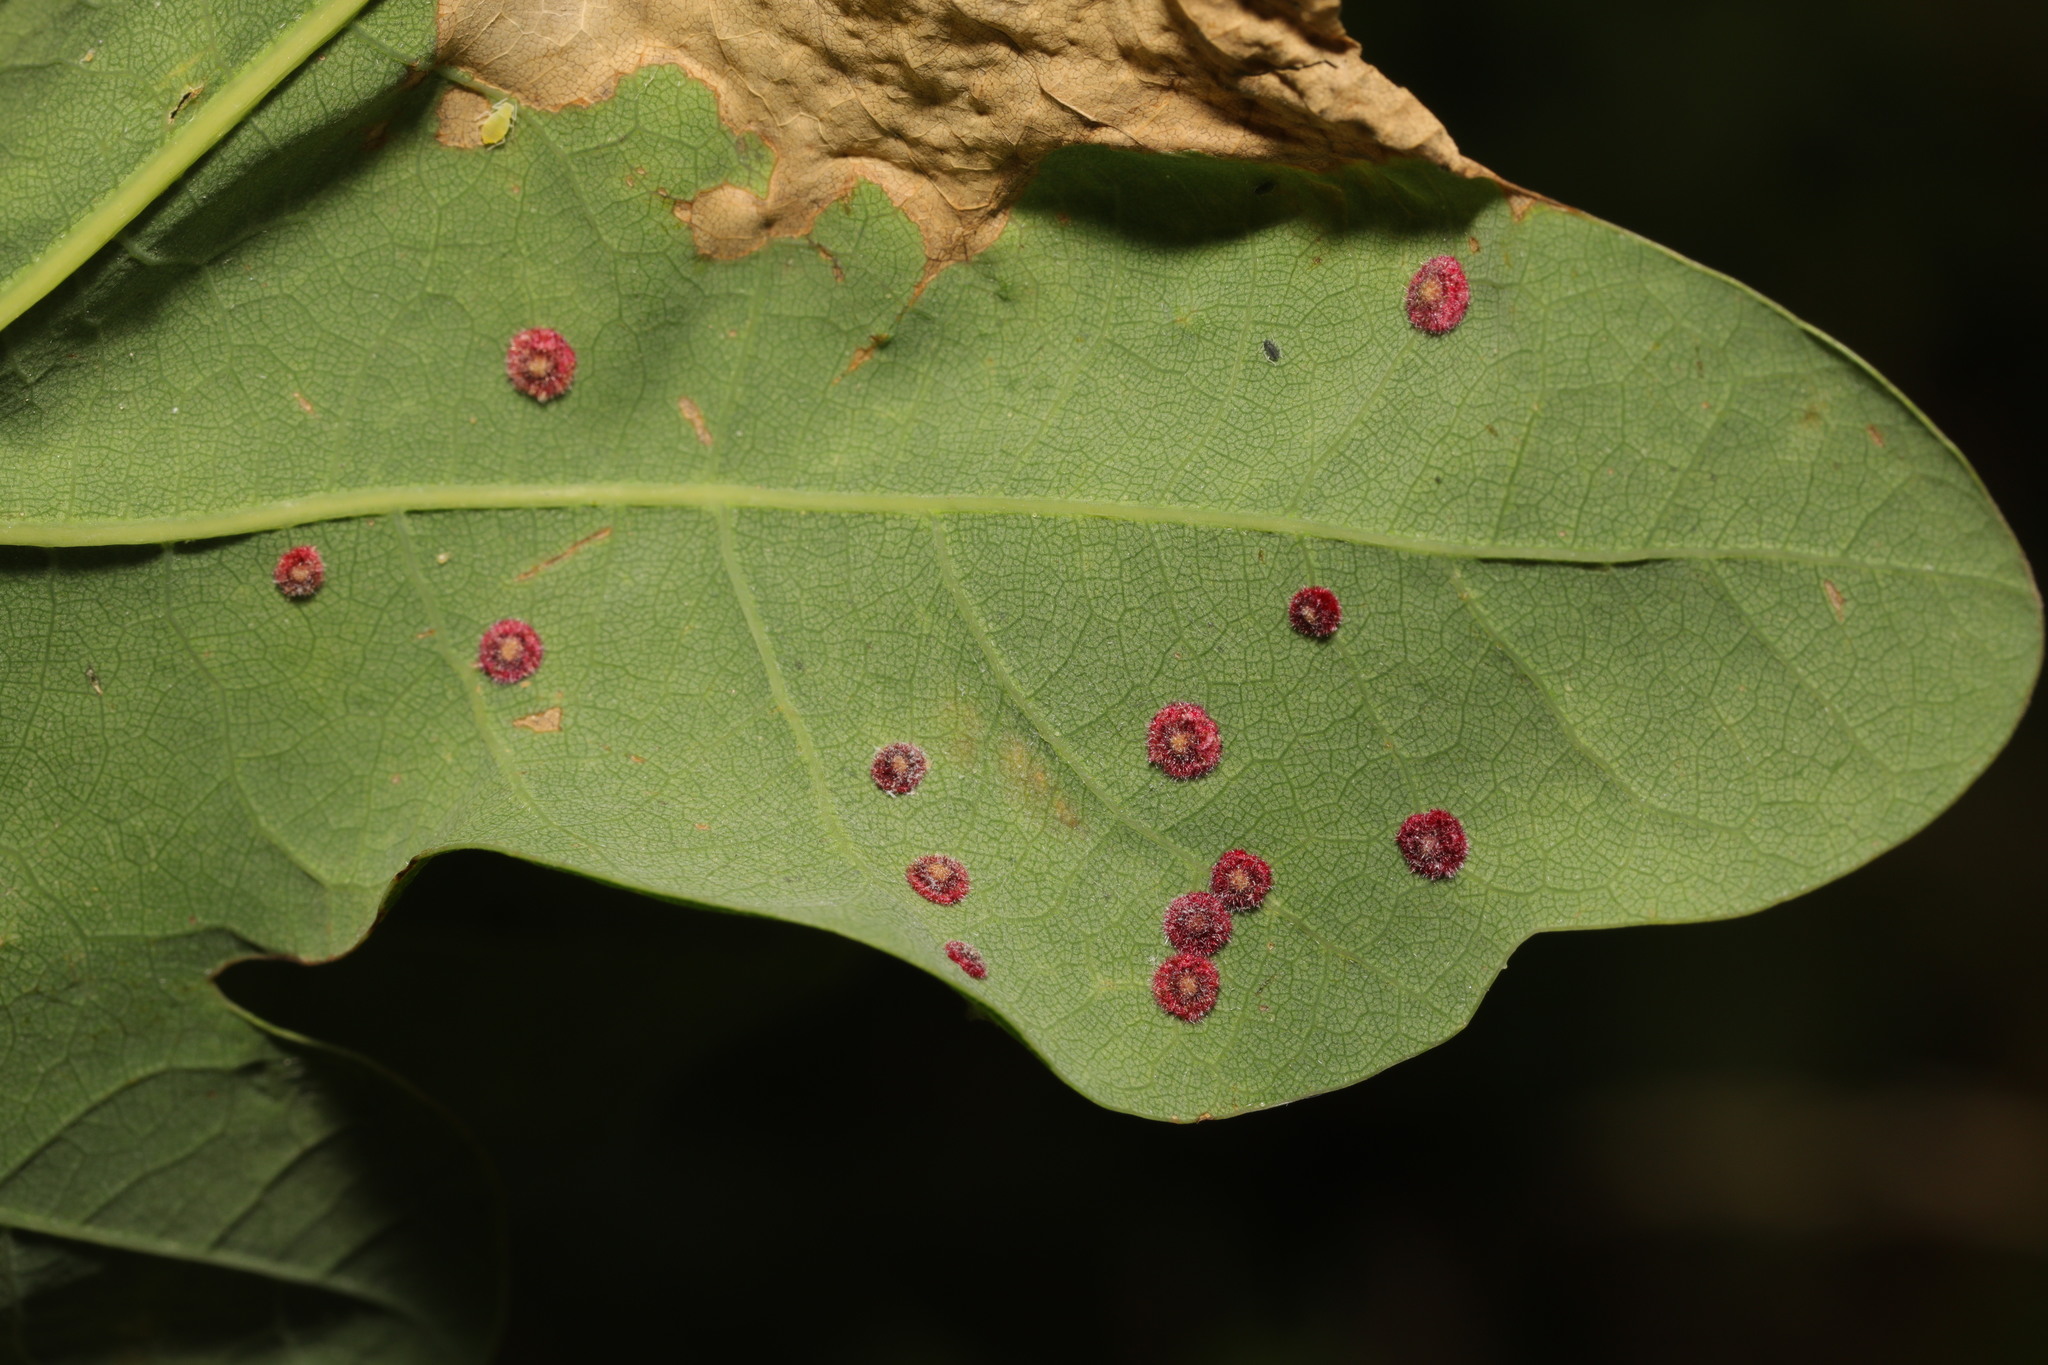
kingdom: Animalia
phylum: Arthropoda
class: Insecta
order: Hymenoptera
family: Cynipidae
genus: Neuroterus
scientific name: Neuroterus quercusbaccarum
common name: Common spangle gall
